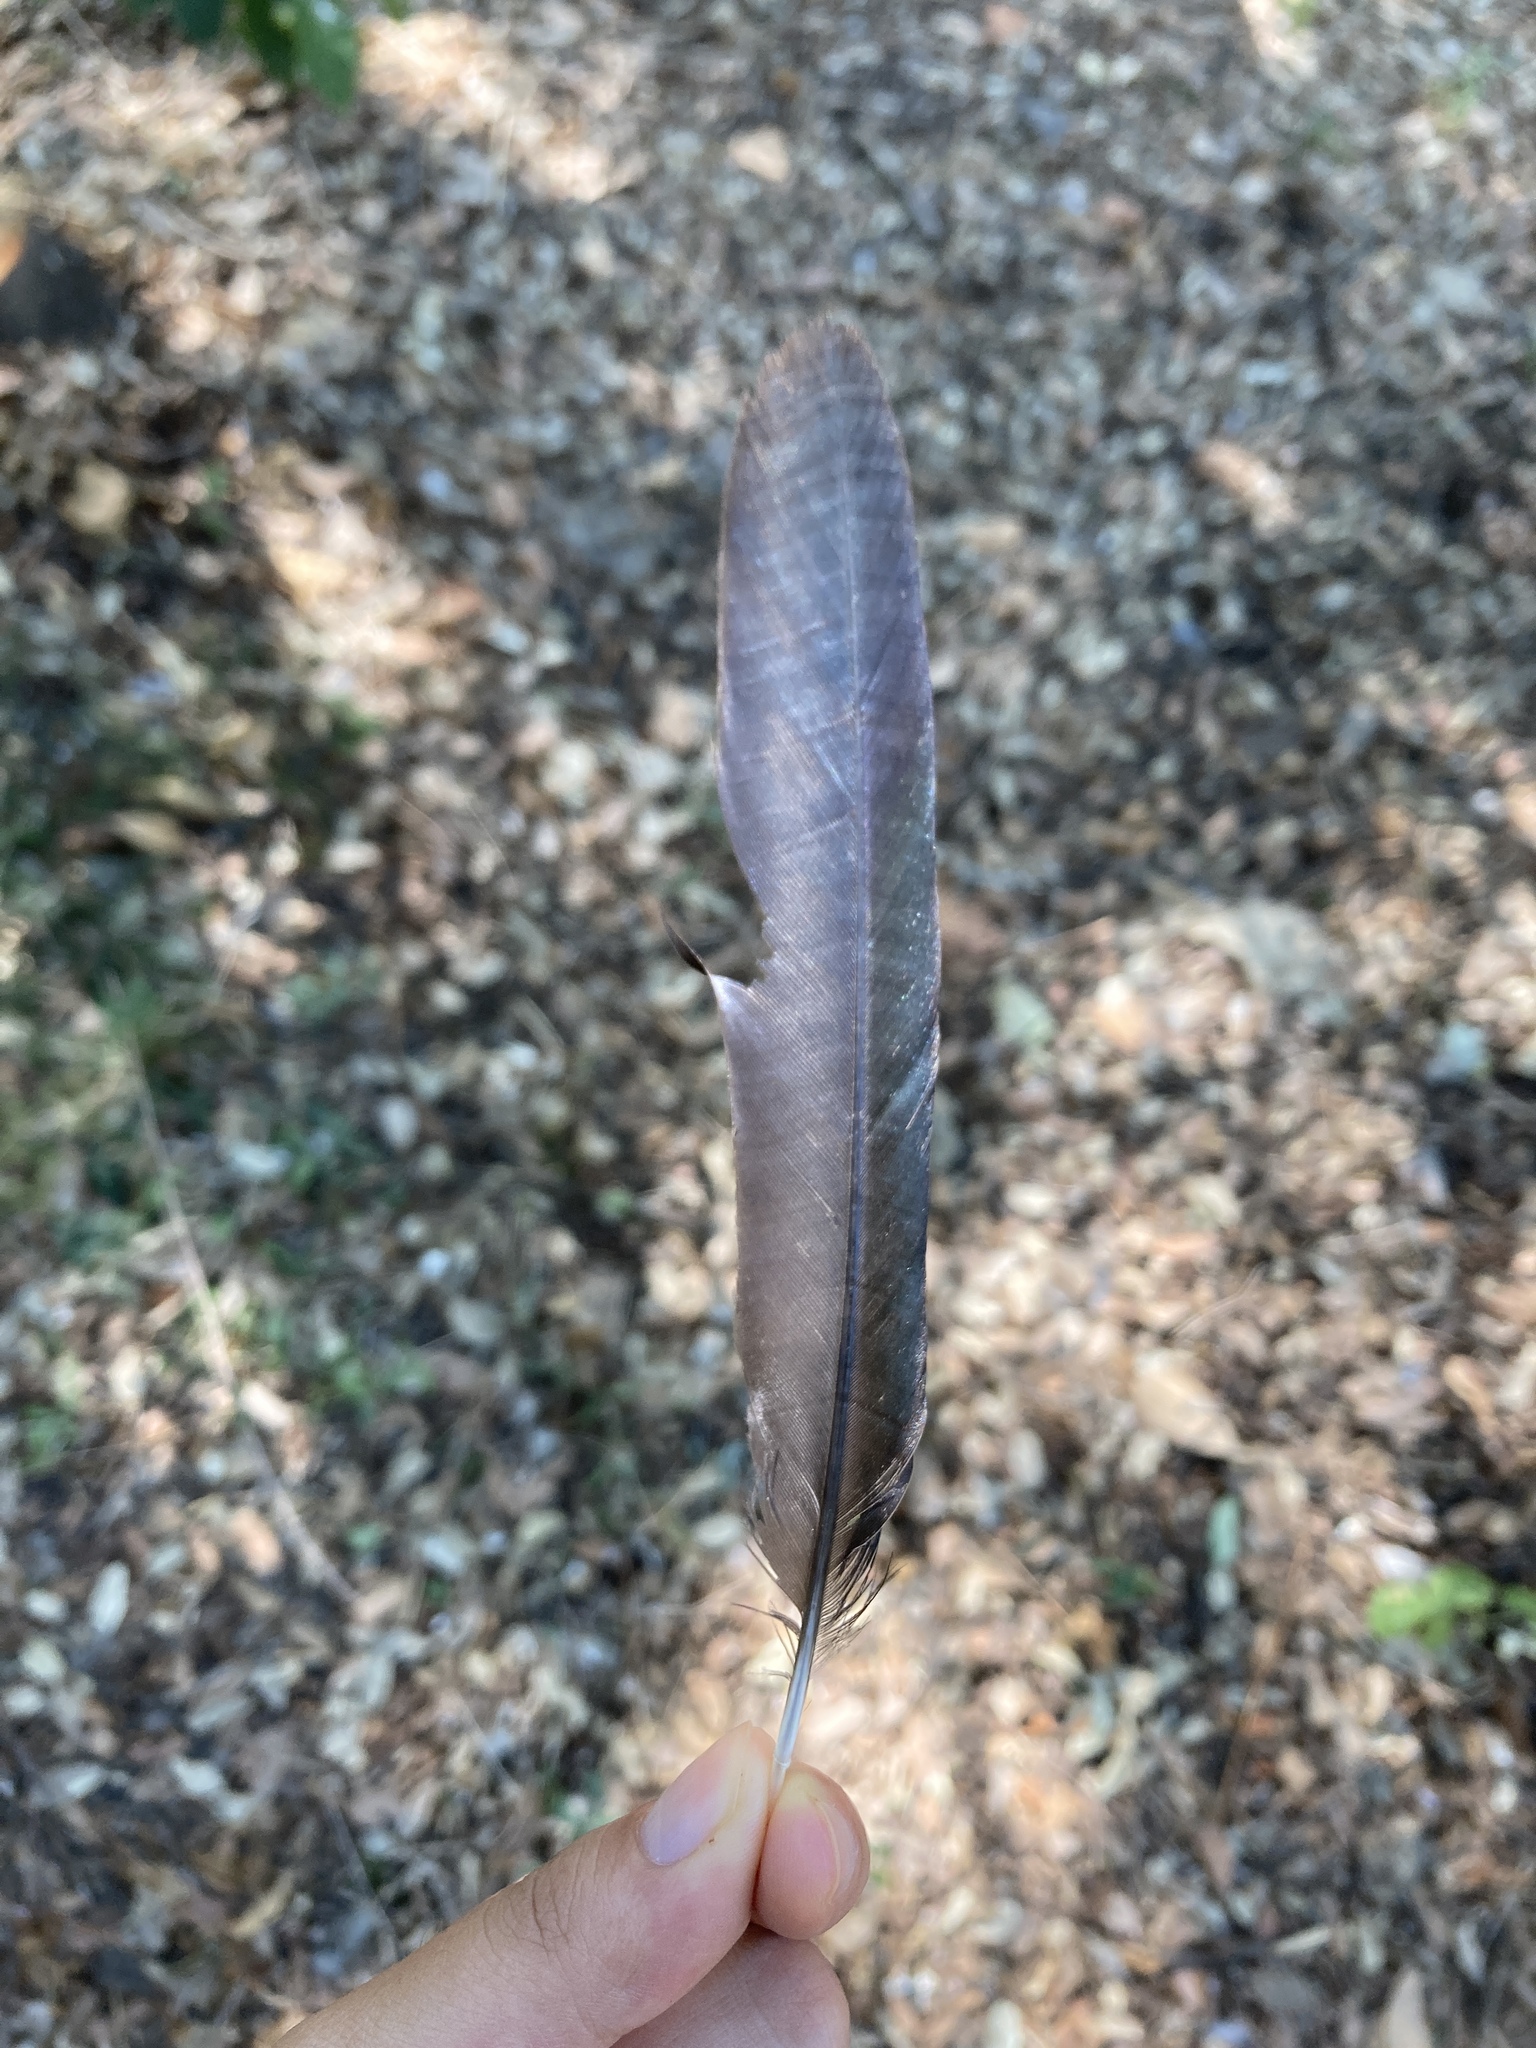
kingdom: Animalia
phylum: Chordata
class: Aves
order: Passeriformes
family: Corvidae
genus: Pica
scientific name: Pica pica
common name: Eurasian magpie
